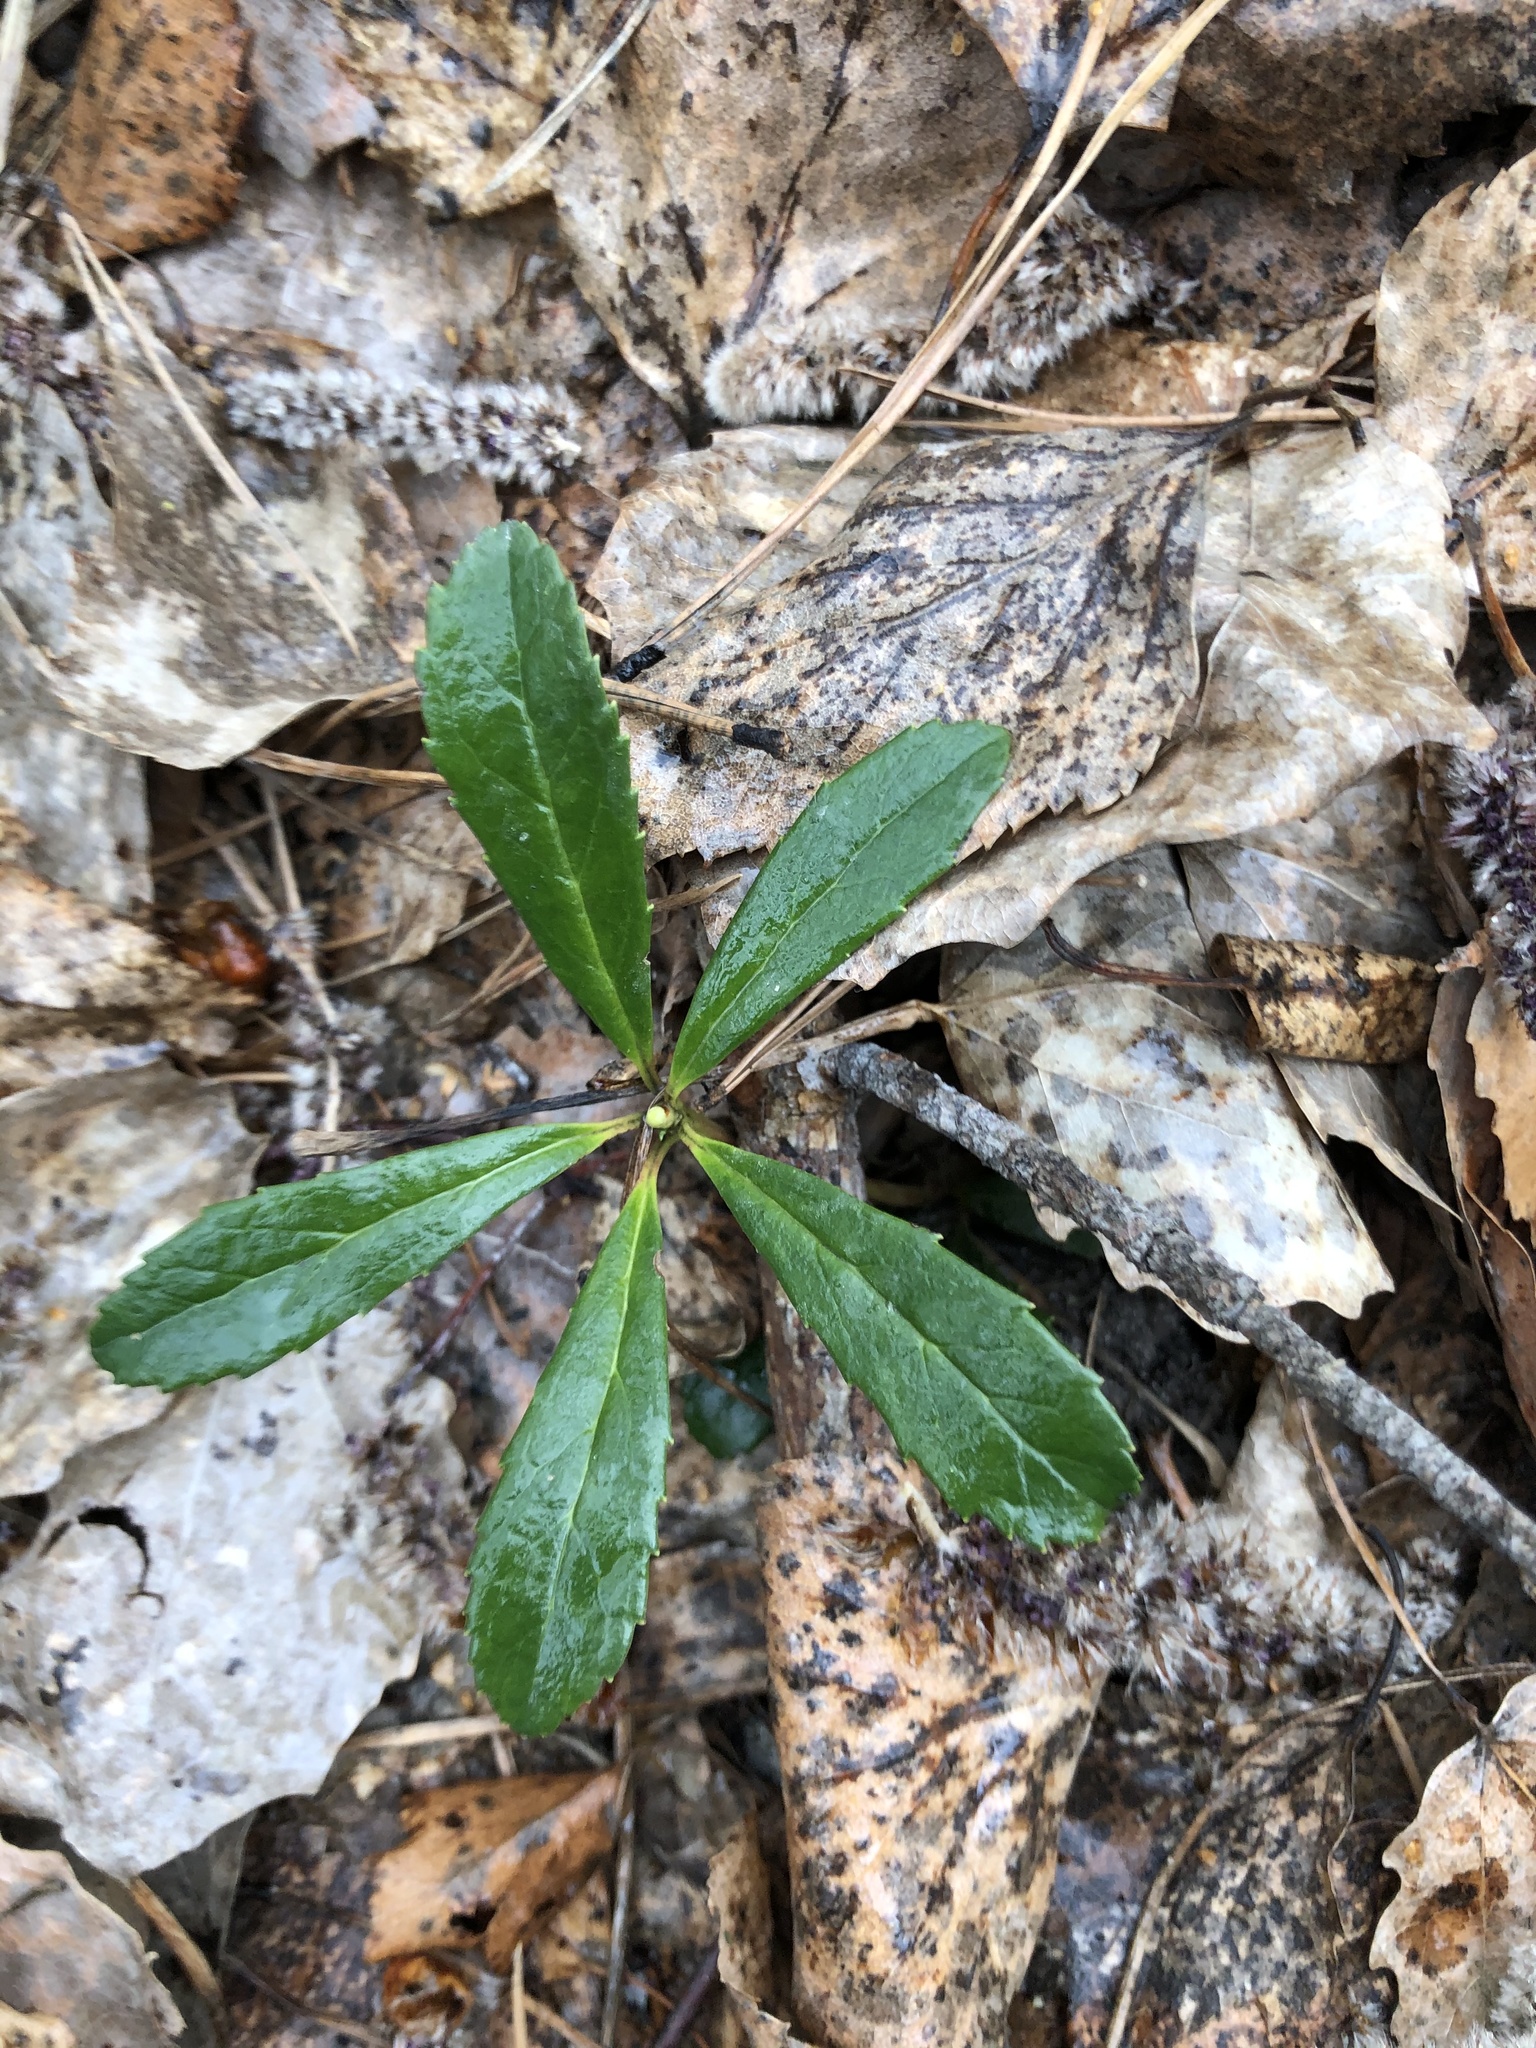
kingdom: Plantae
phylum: Tracheophyta
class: Magnoliopsida
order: Ericales
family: Ericaceae
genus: Chimaphila
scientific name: Chimaphila umbellata
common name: Pipsissewa
